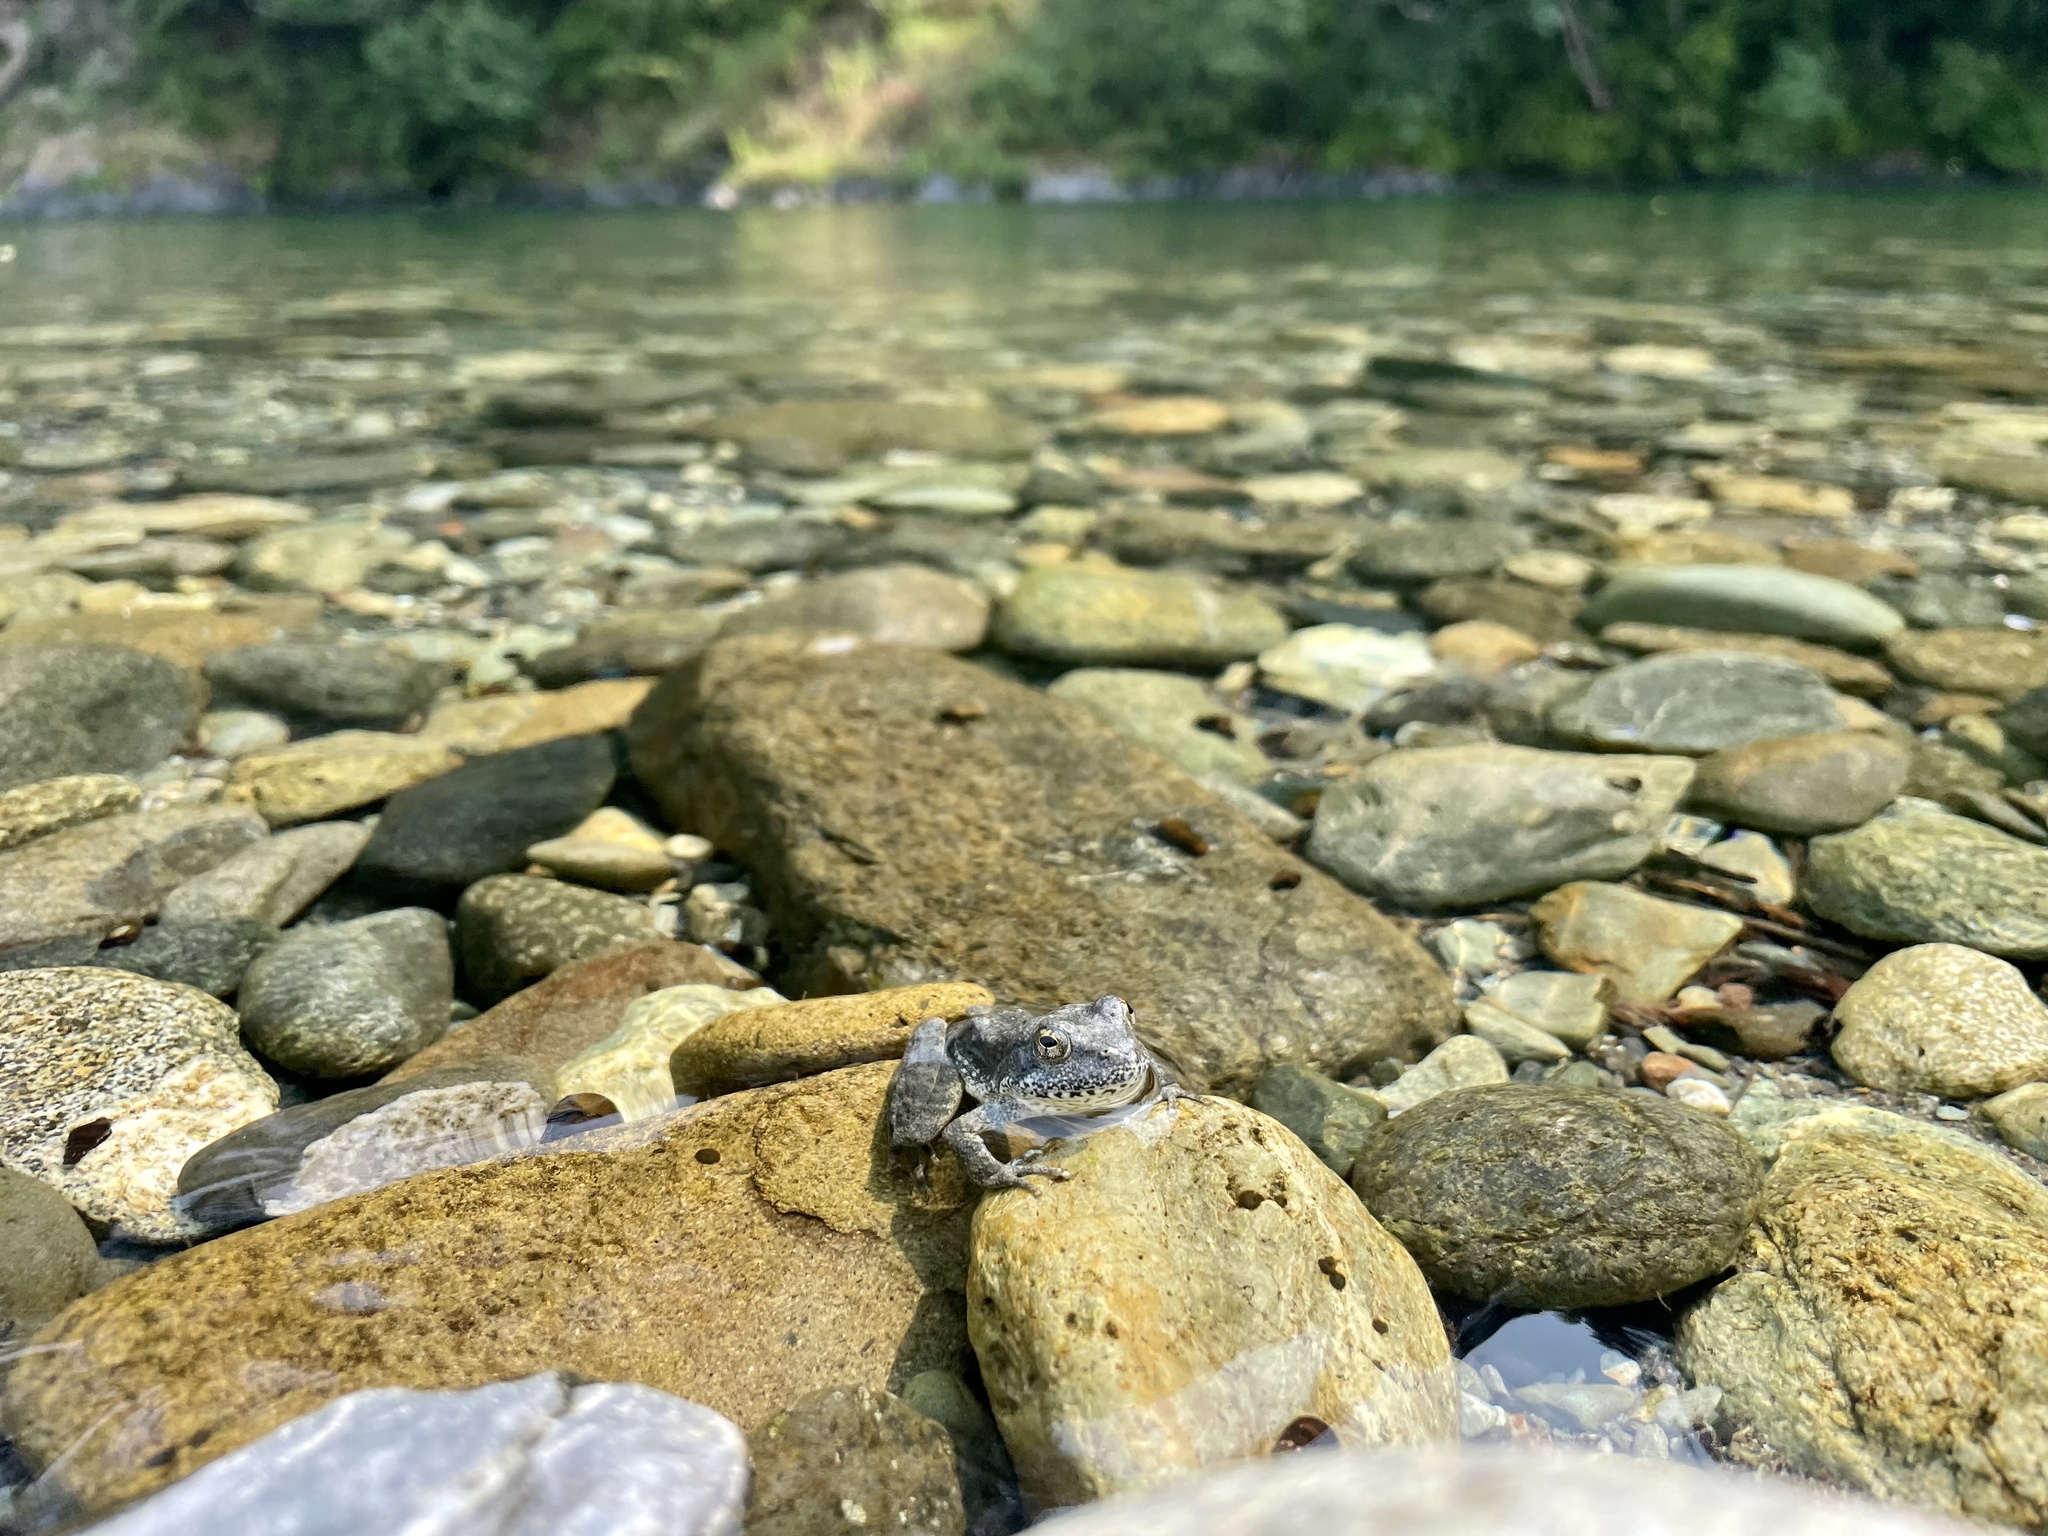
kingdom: Animalia
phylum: Chordata
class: Amphibia
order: Anura
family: Ranidae
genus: Rana
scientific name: Rana boylii
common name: Foothill yellow-legged frog
